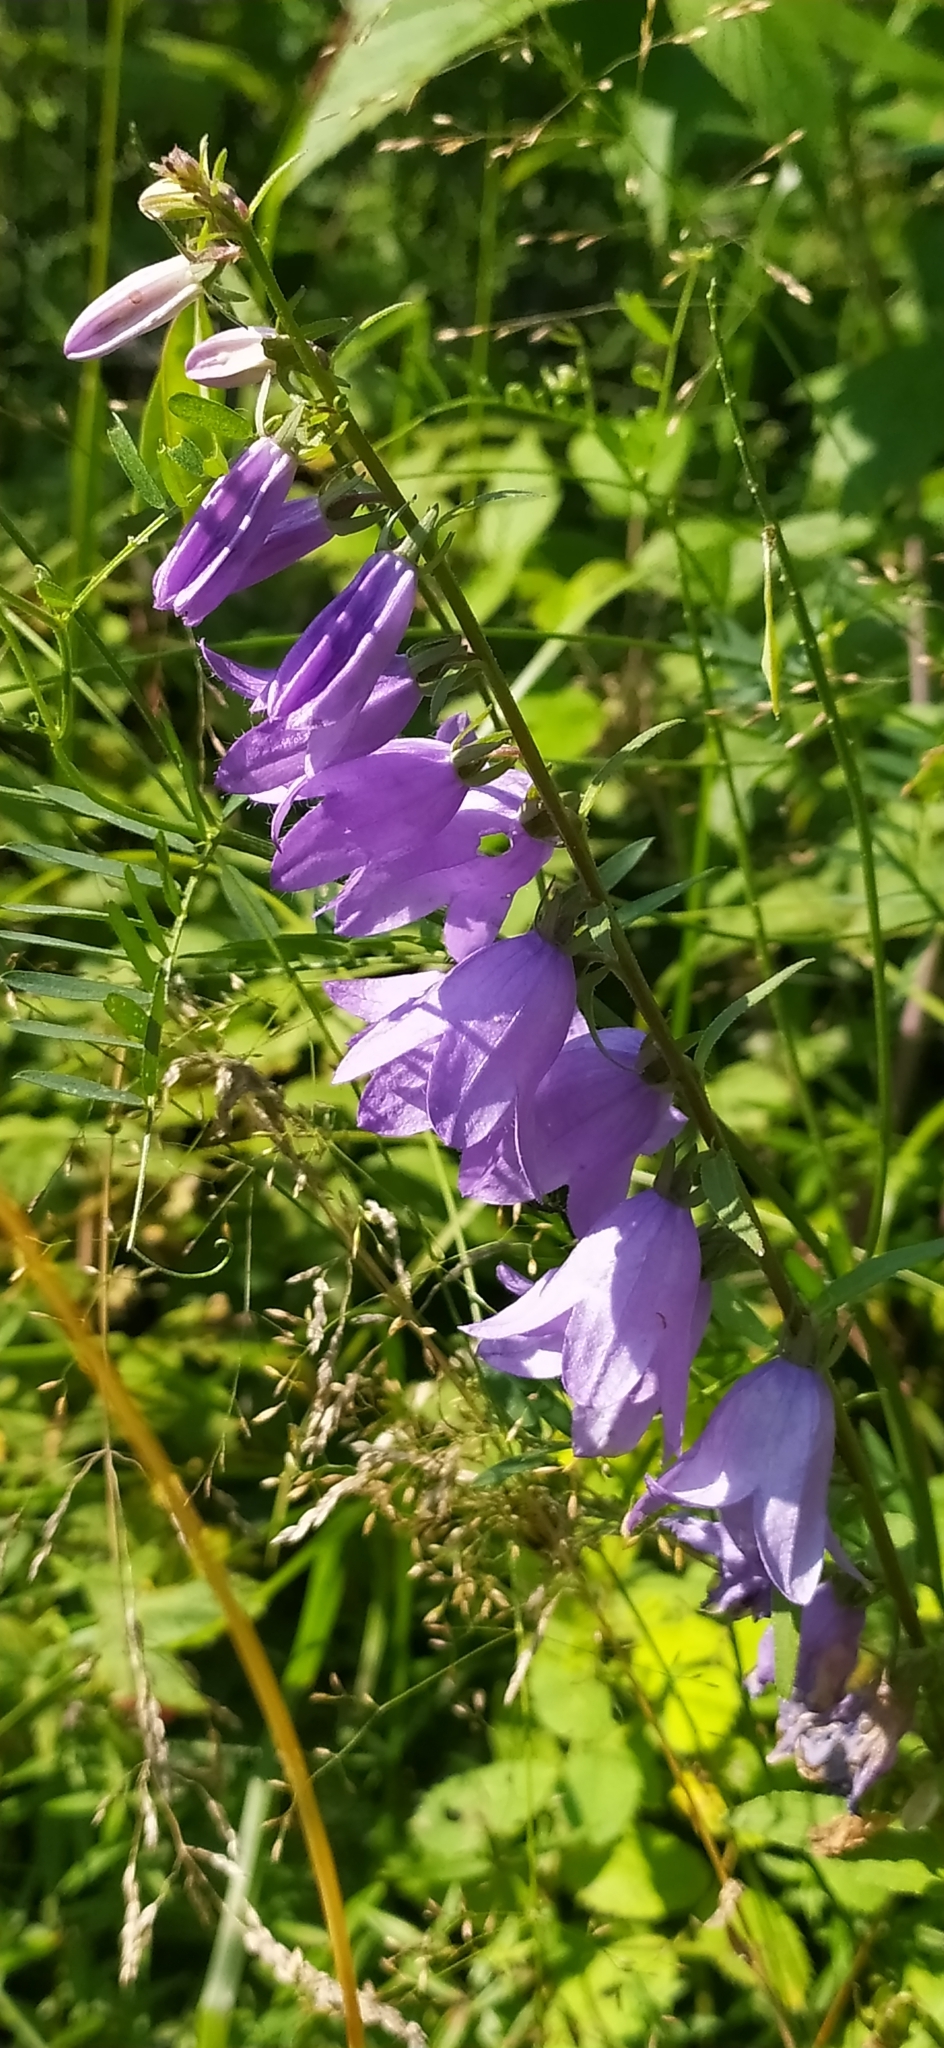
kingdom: Plantae
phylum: Tracheophyta
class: Magnoliopsida
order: Asterales
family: Campanulaceae
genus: Campanula
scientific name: Campanula rapunculoides
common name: Creeping bellflower
